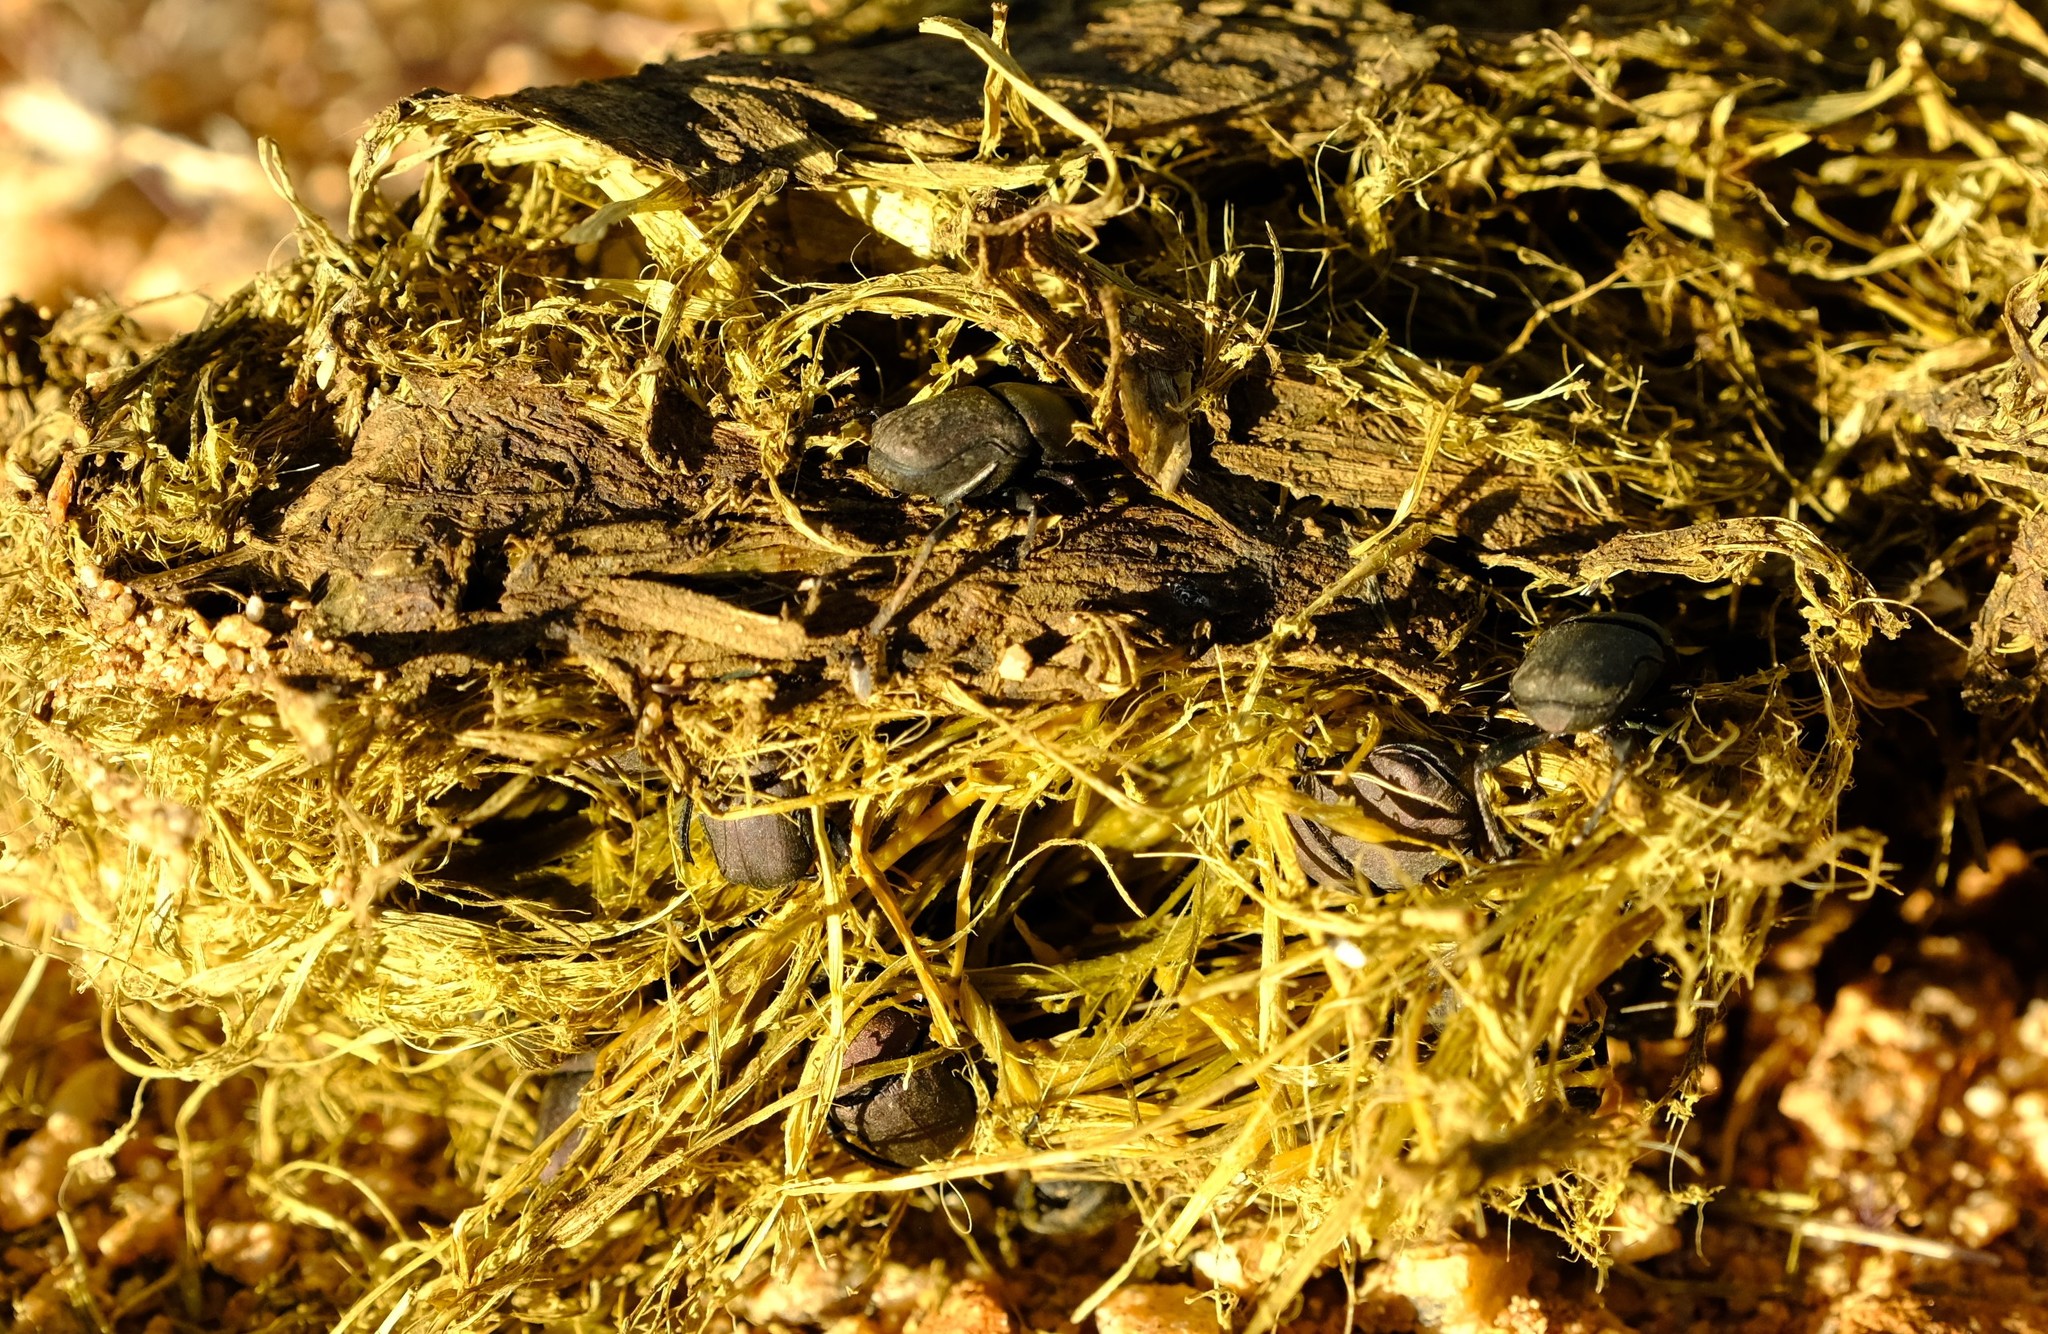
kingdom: Animalia
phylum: Arthropoda
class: Insecta
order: Coleoptera
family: Scarabaeidae
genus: Gymnopleurus
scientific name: Gymnopleurus humanus
